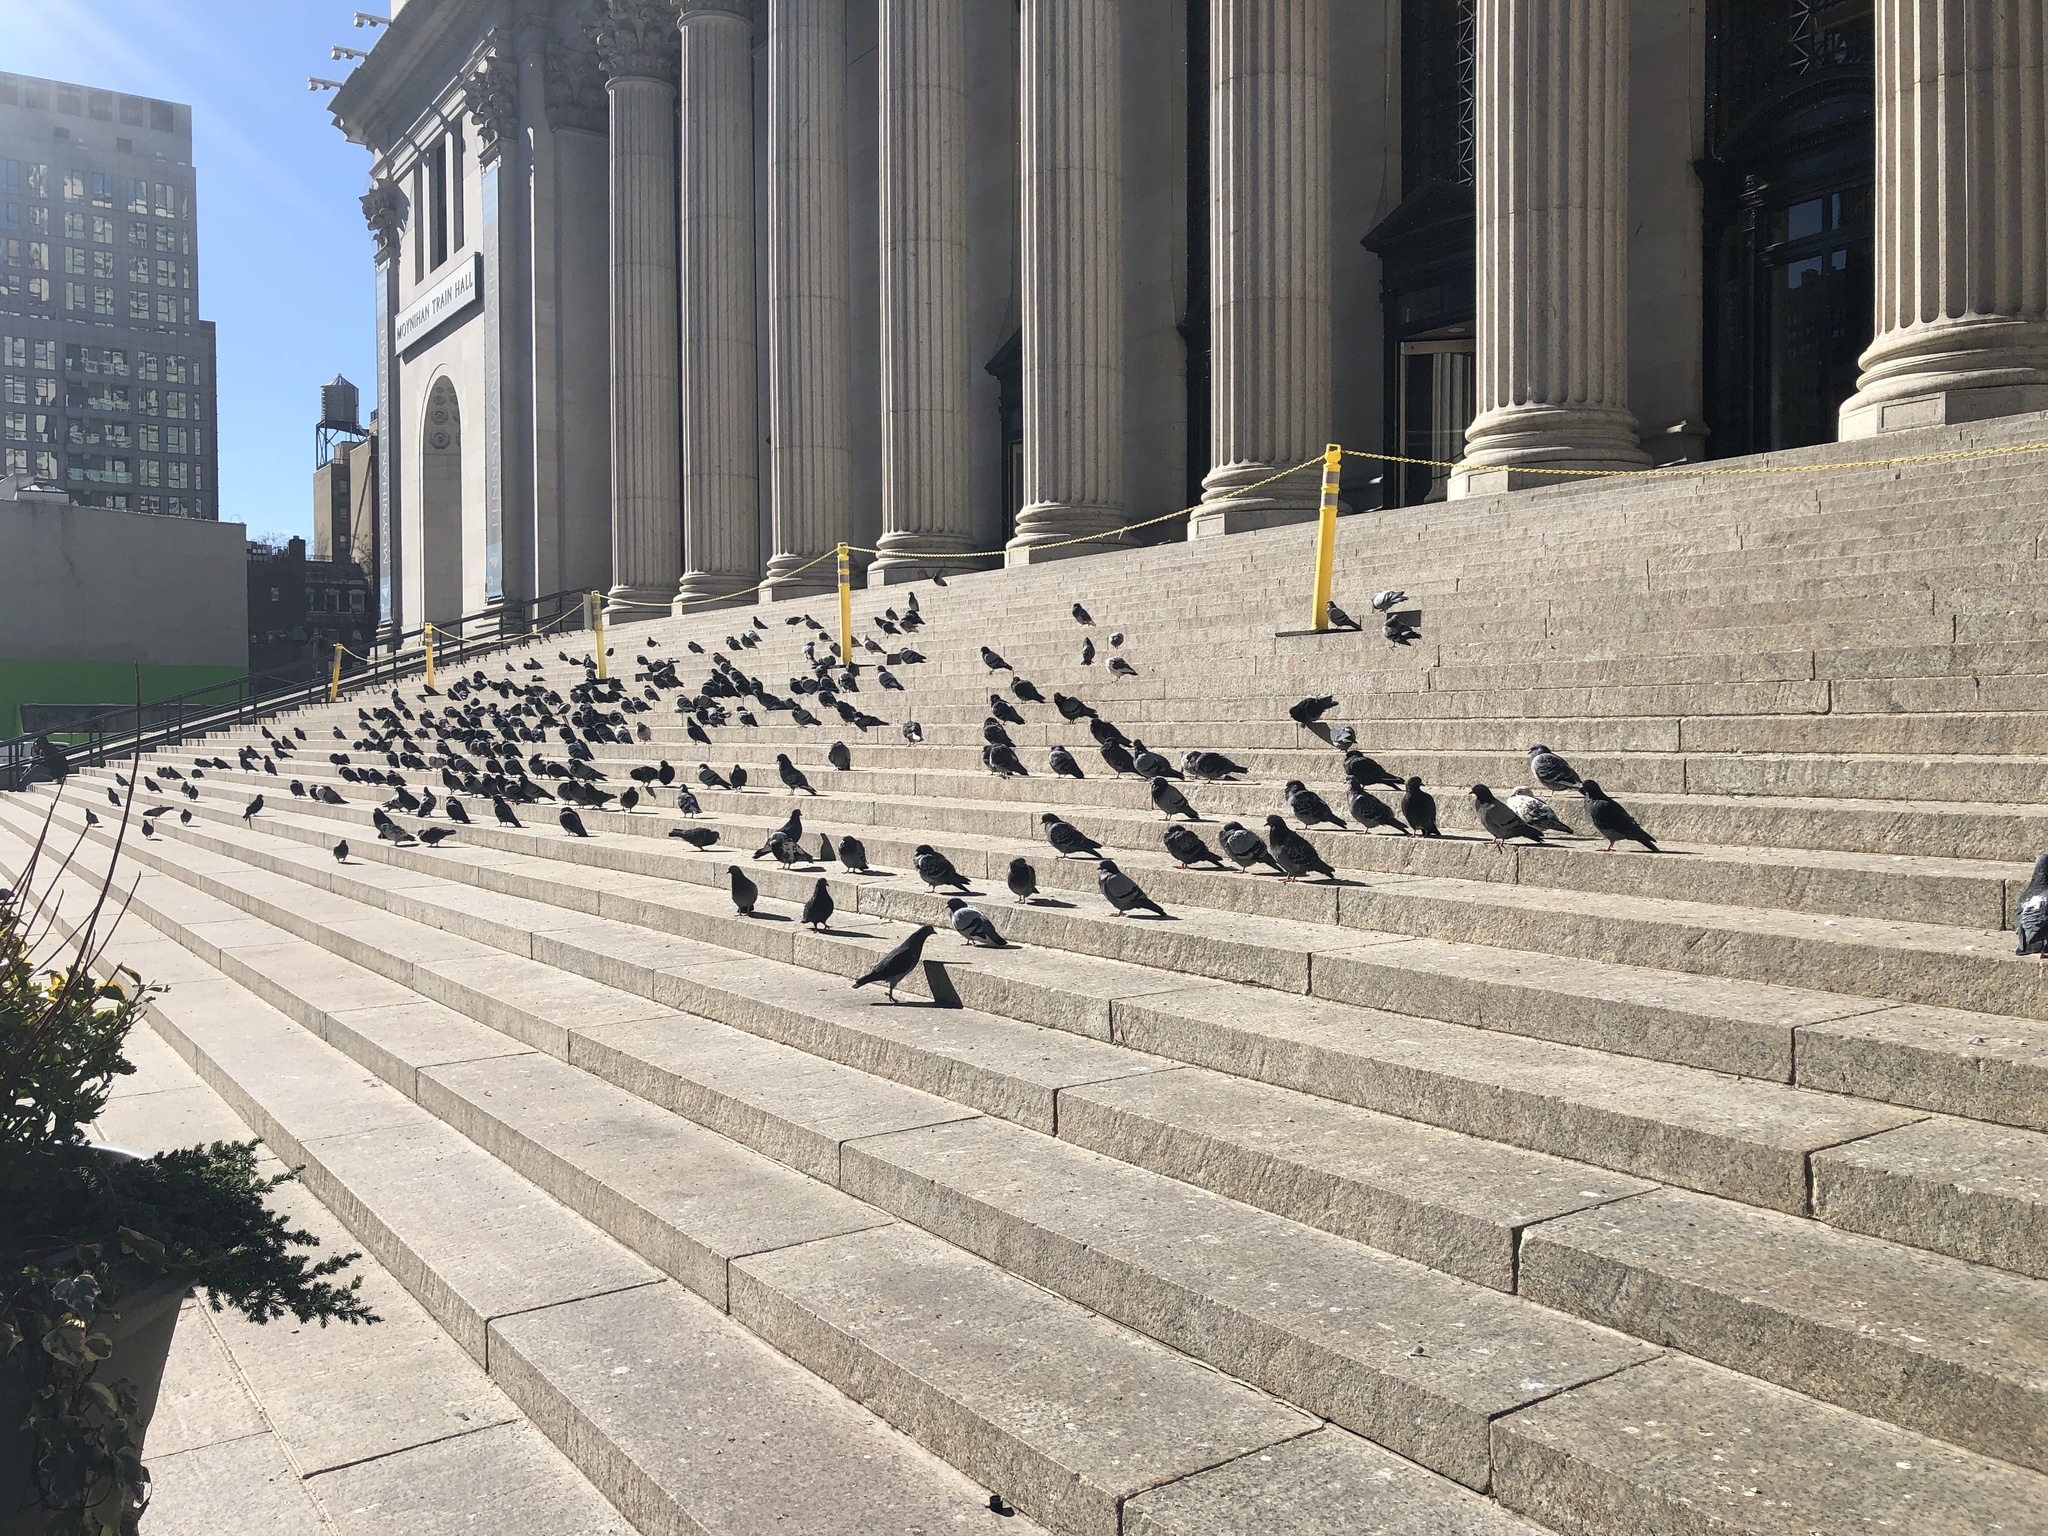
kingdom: Animalia
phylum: Chordata
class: Aves
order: Columbiformes
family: Columbidae
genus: Columba
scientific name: Columba livia
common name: Rock pigeon
